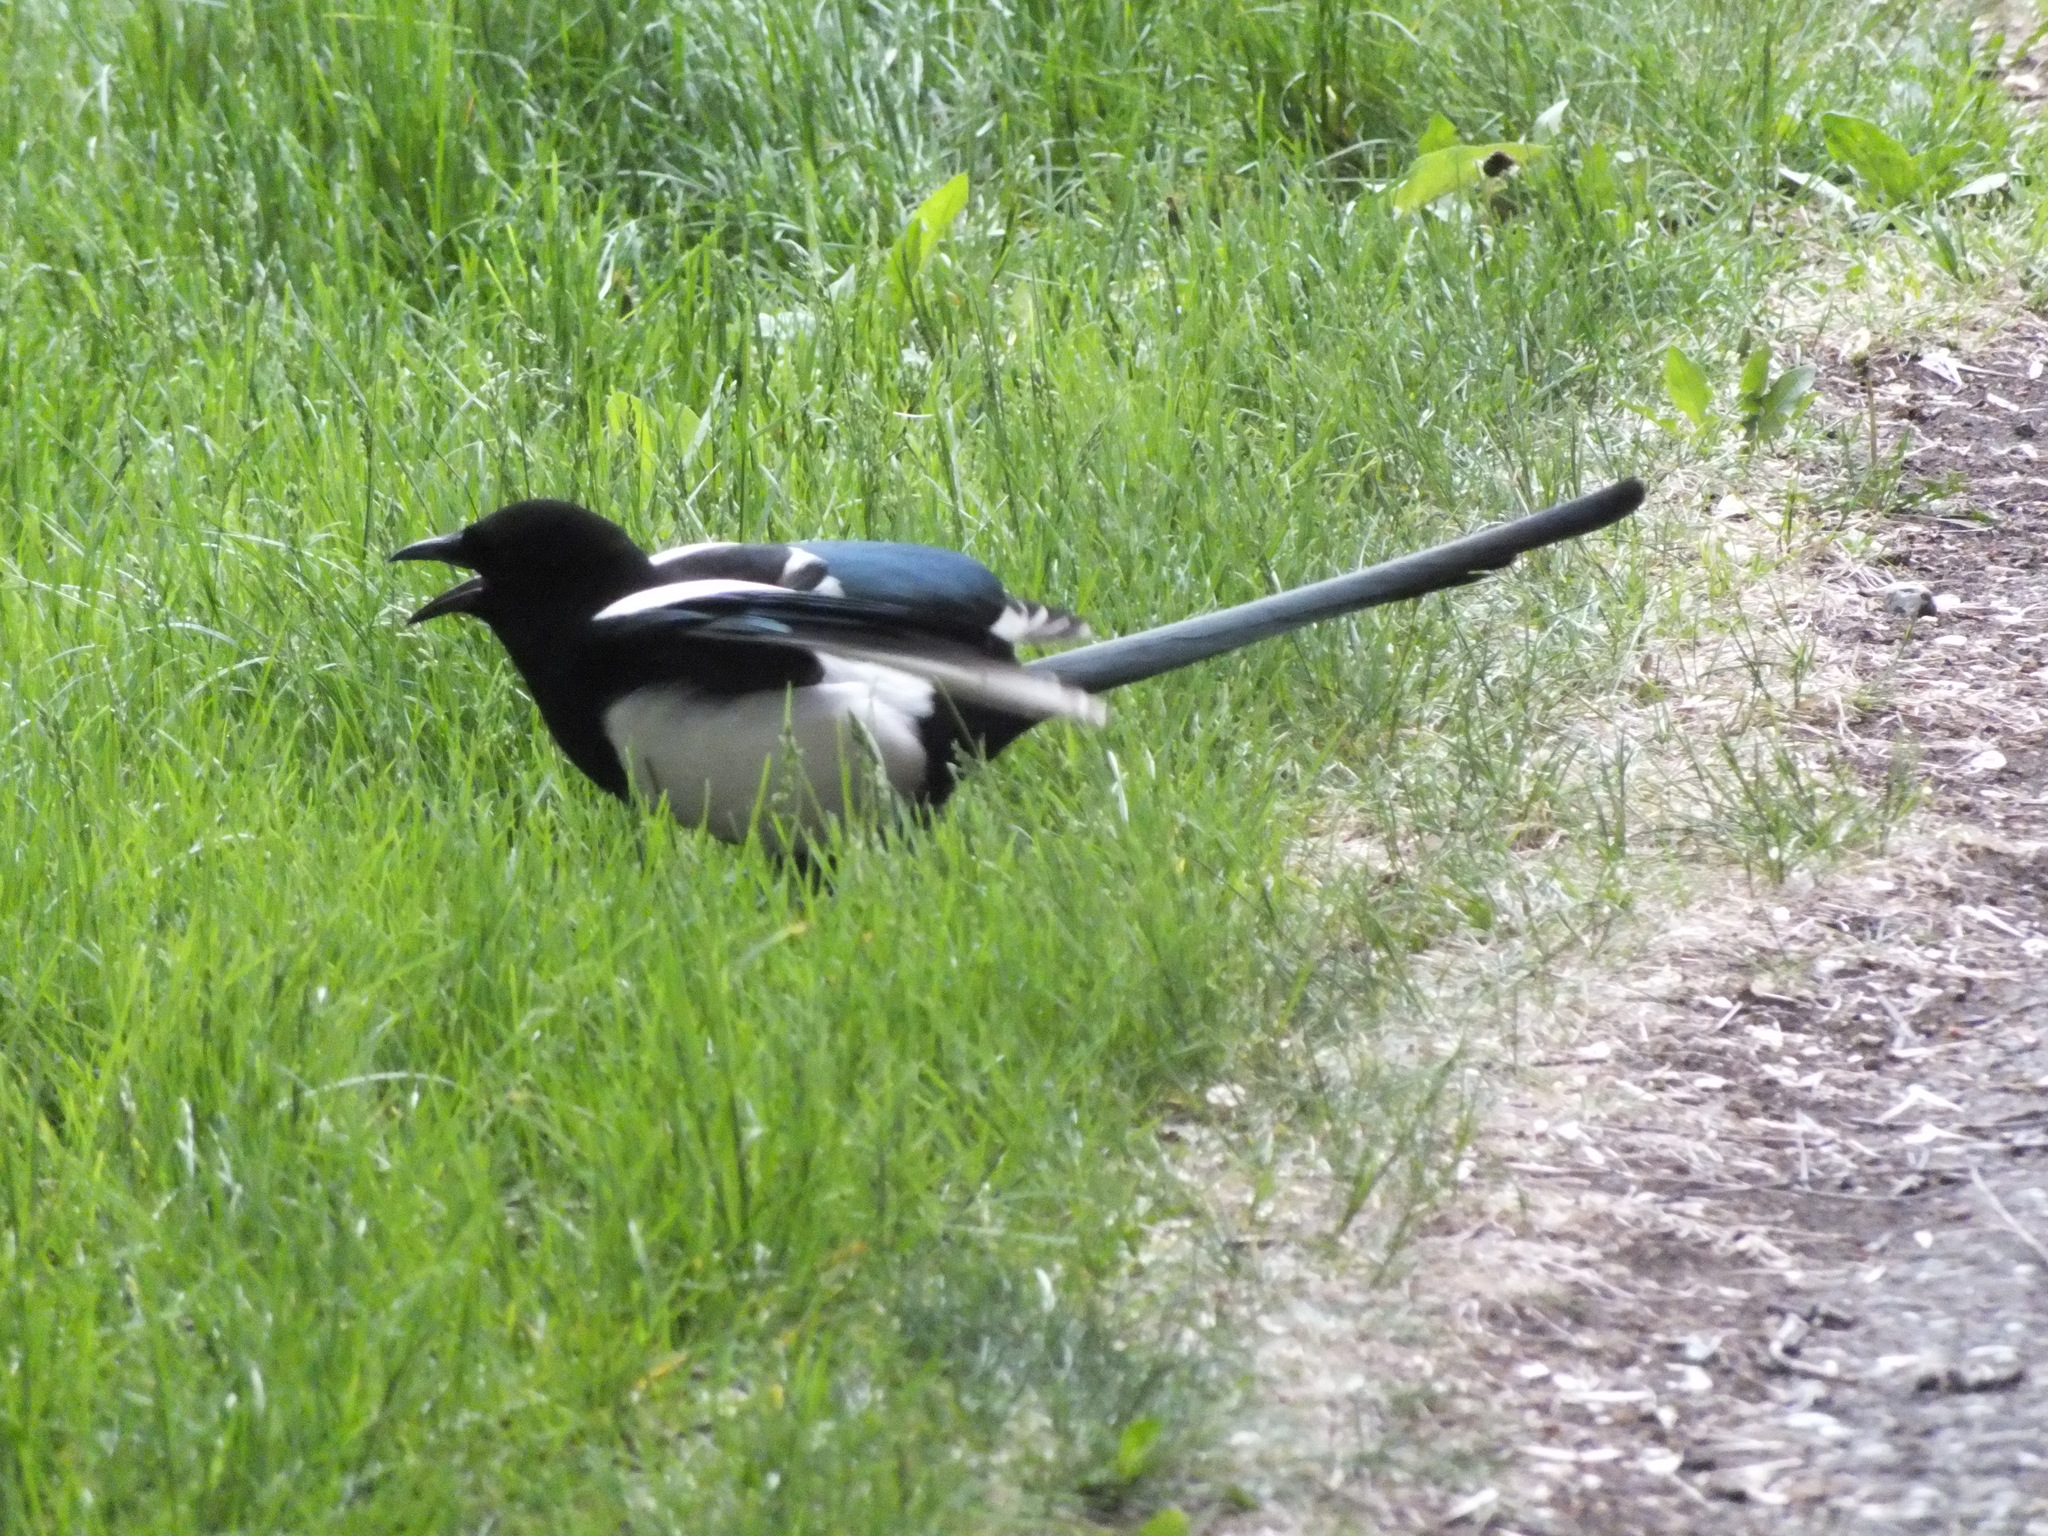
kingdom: Animalia
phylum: Chordata
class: Aves
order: Passeriformes
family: Corvidae
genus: Pica
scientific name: Pica pica
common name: Eurasian magpie
